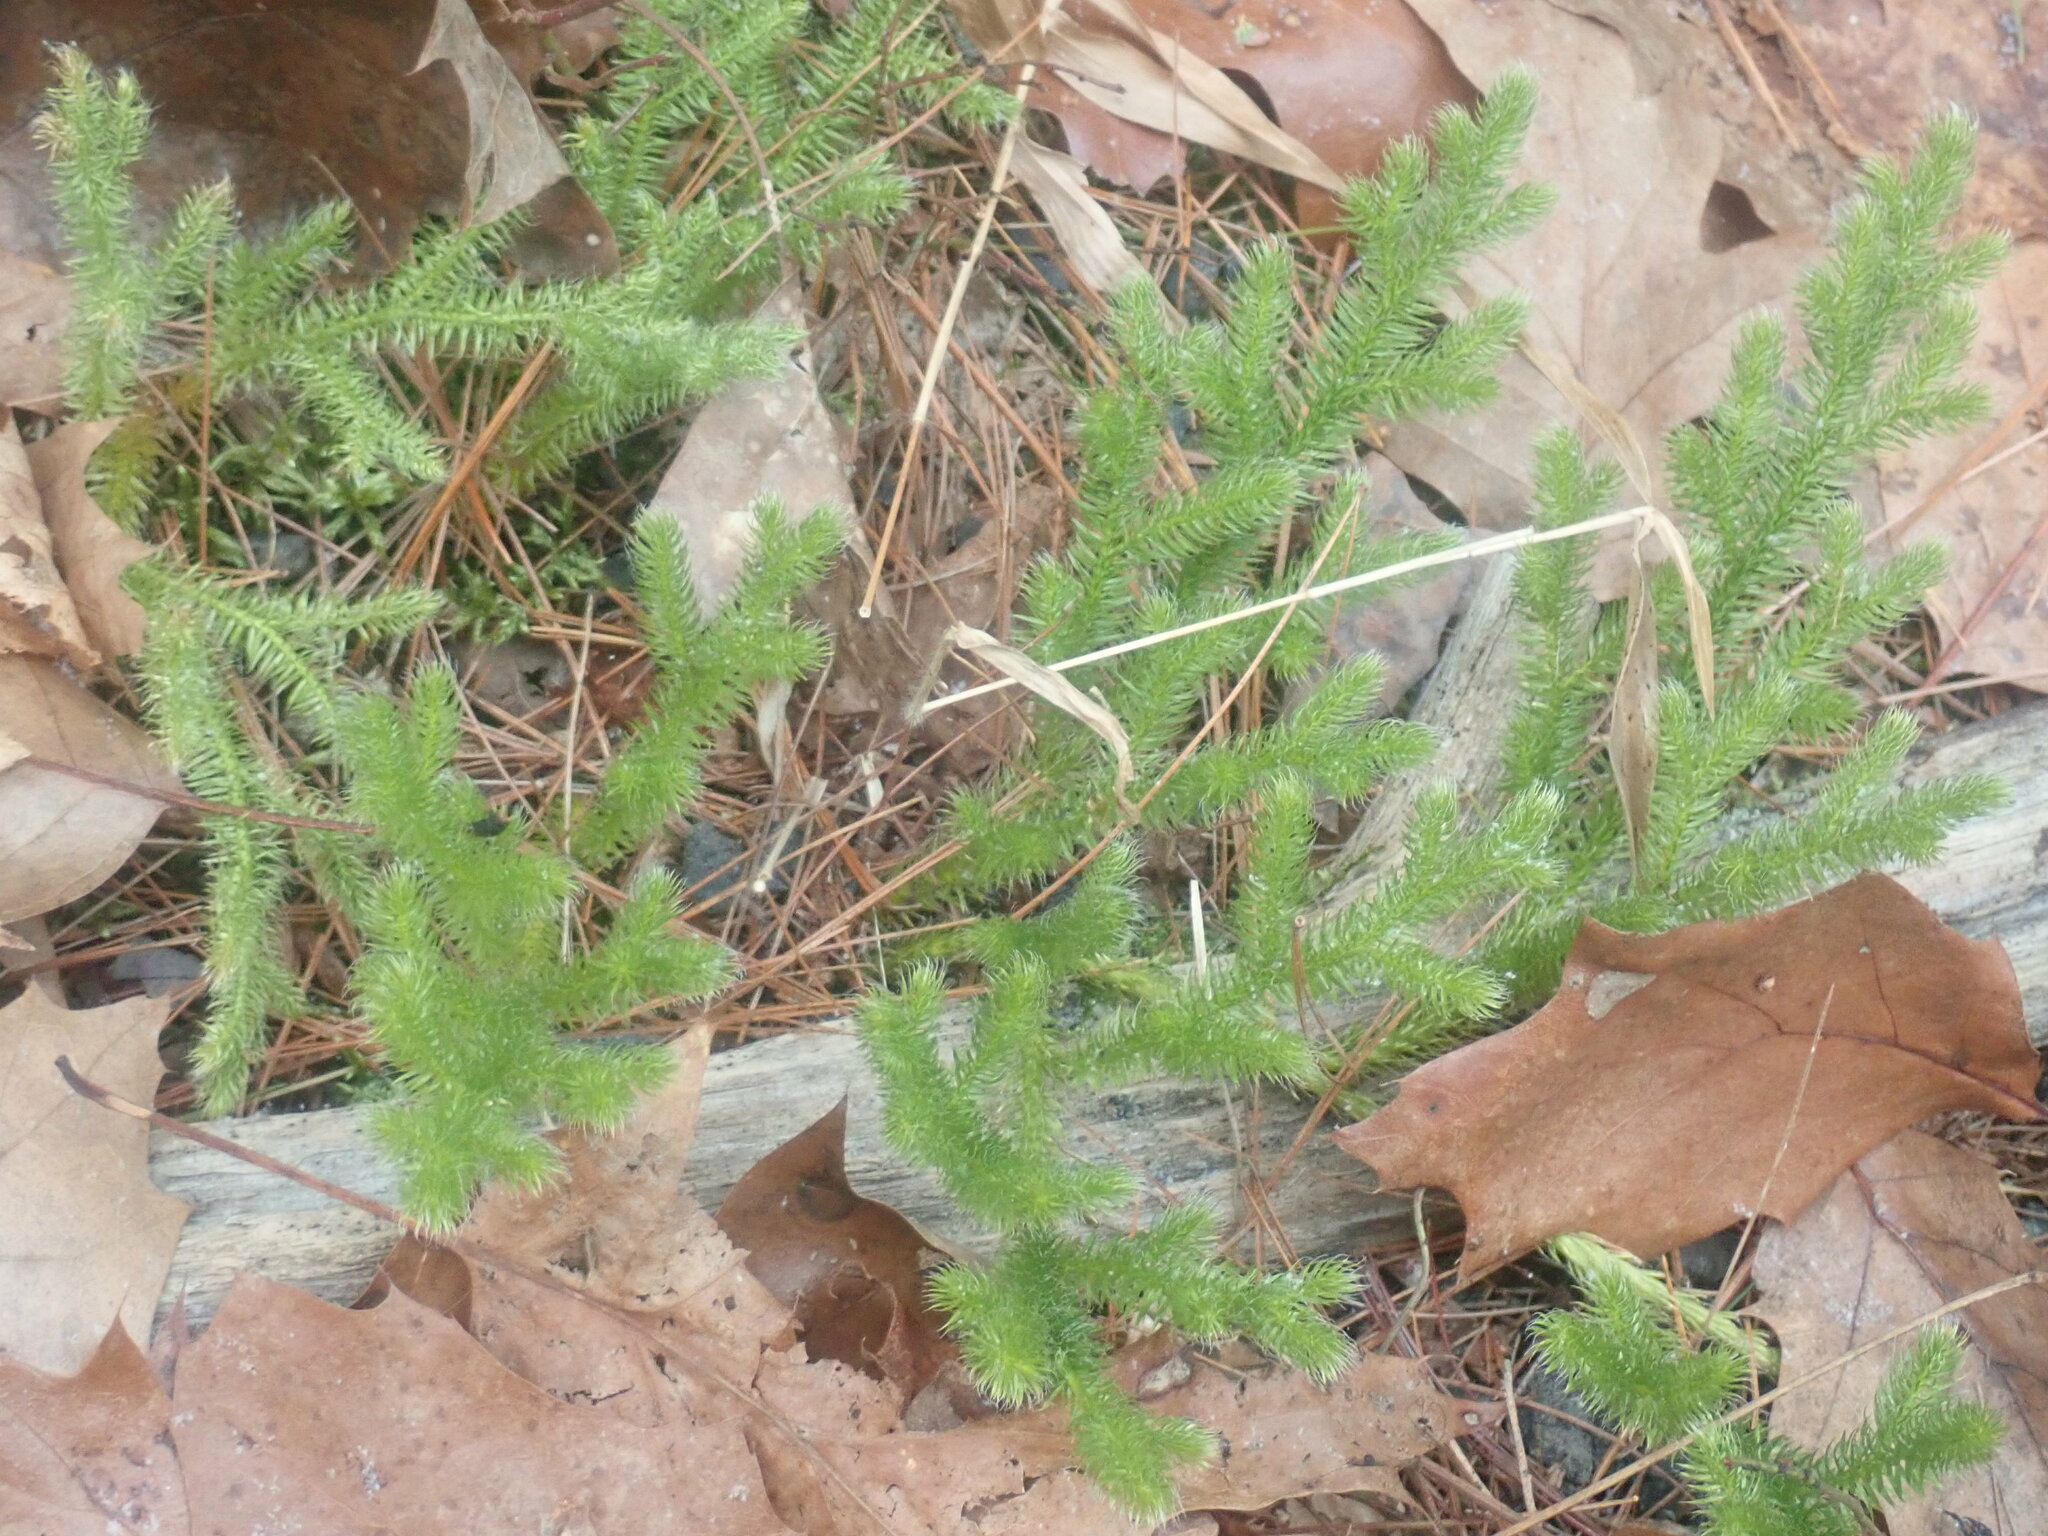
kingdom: Plantae
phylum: Tracheophyta
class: Lycopodiopsida
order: Lycopodiales
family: Lycopodiaceae
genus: Lycopodium
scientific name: Lycopodium clavatum
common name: Stag's-horn clubmoss
